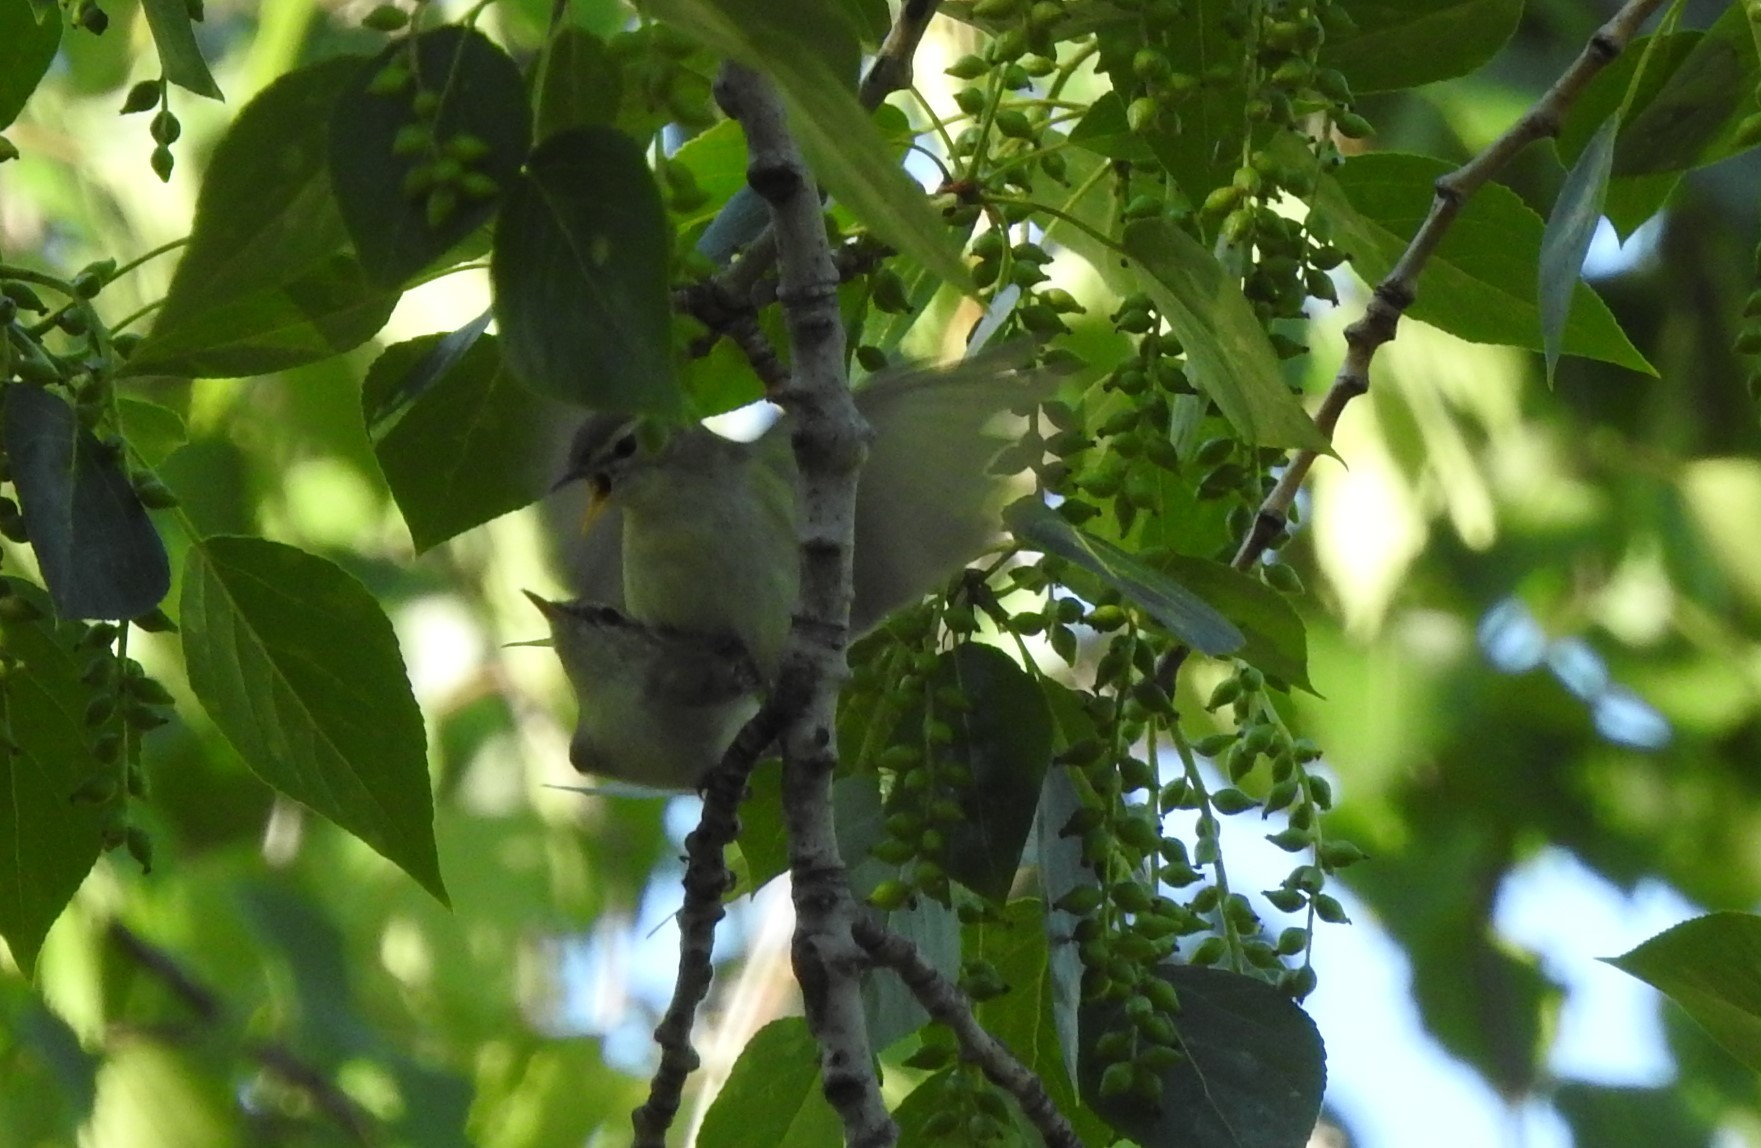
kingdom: Animalia
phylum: Chordata
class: Aves
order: Passeriformes
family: Phylloscopidae
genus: Phylloscopus
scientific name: Phylloscopus trochiloides
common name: Greenish warbler
